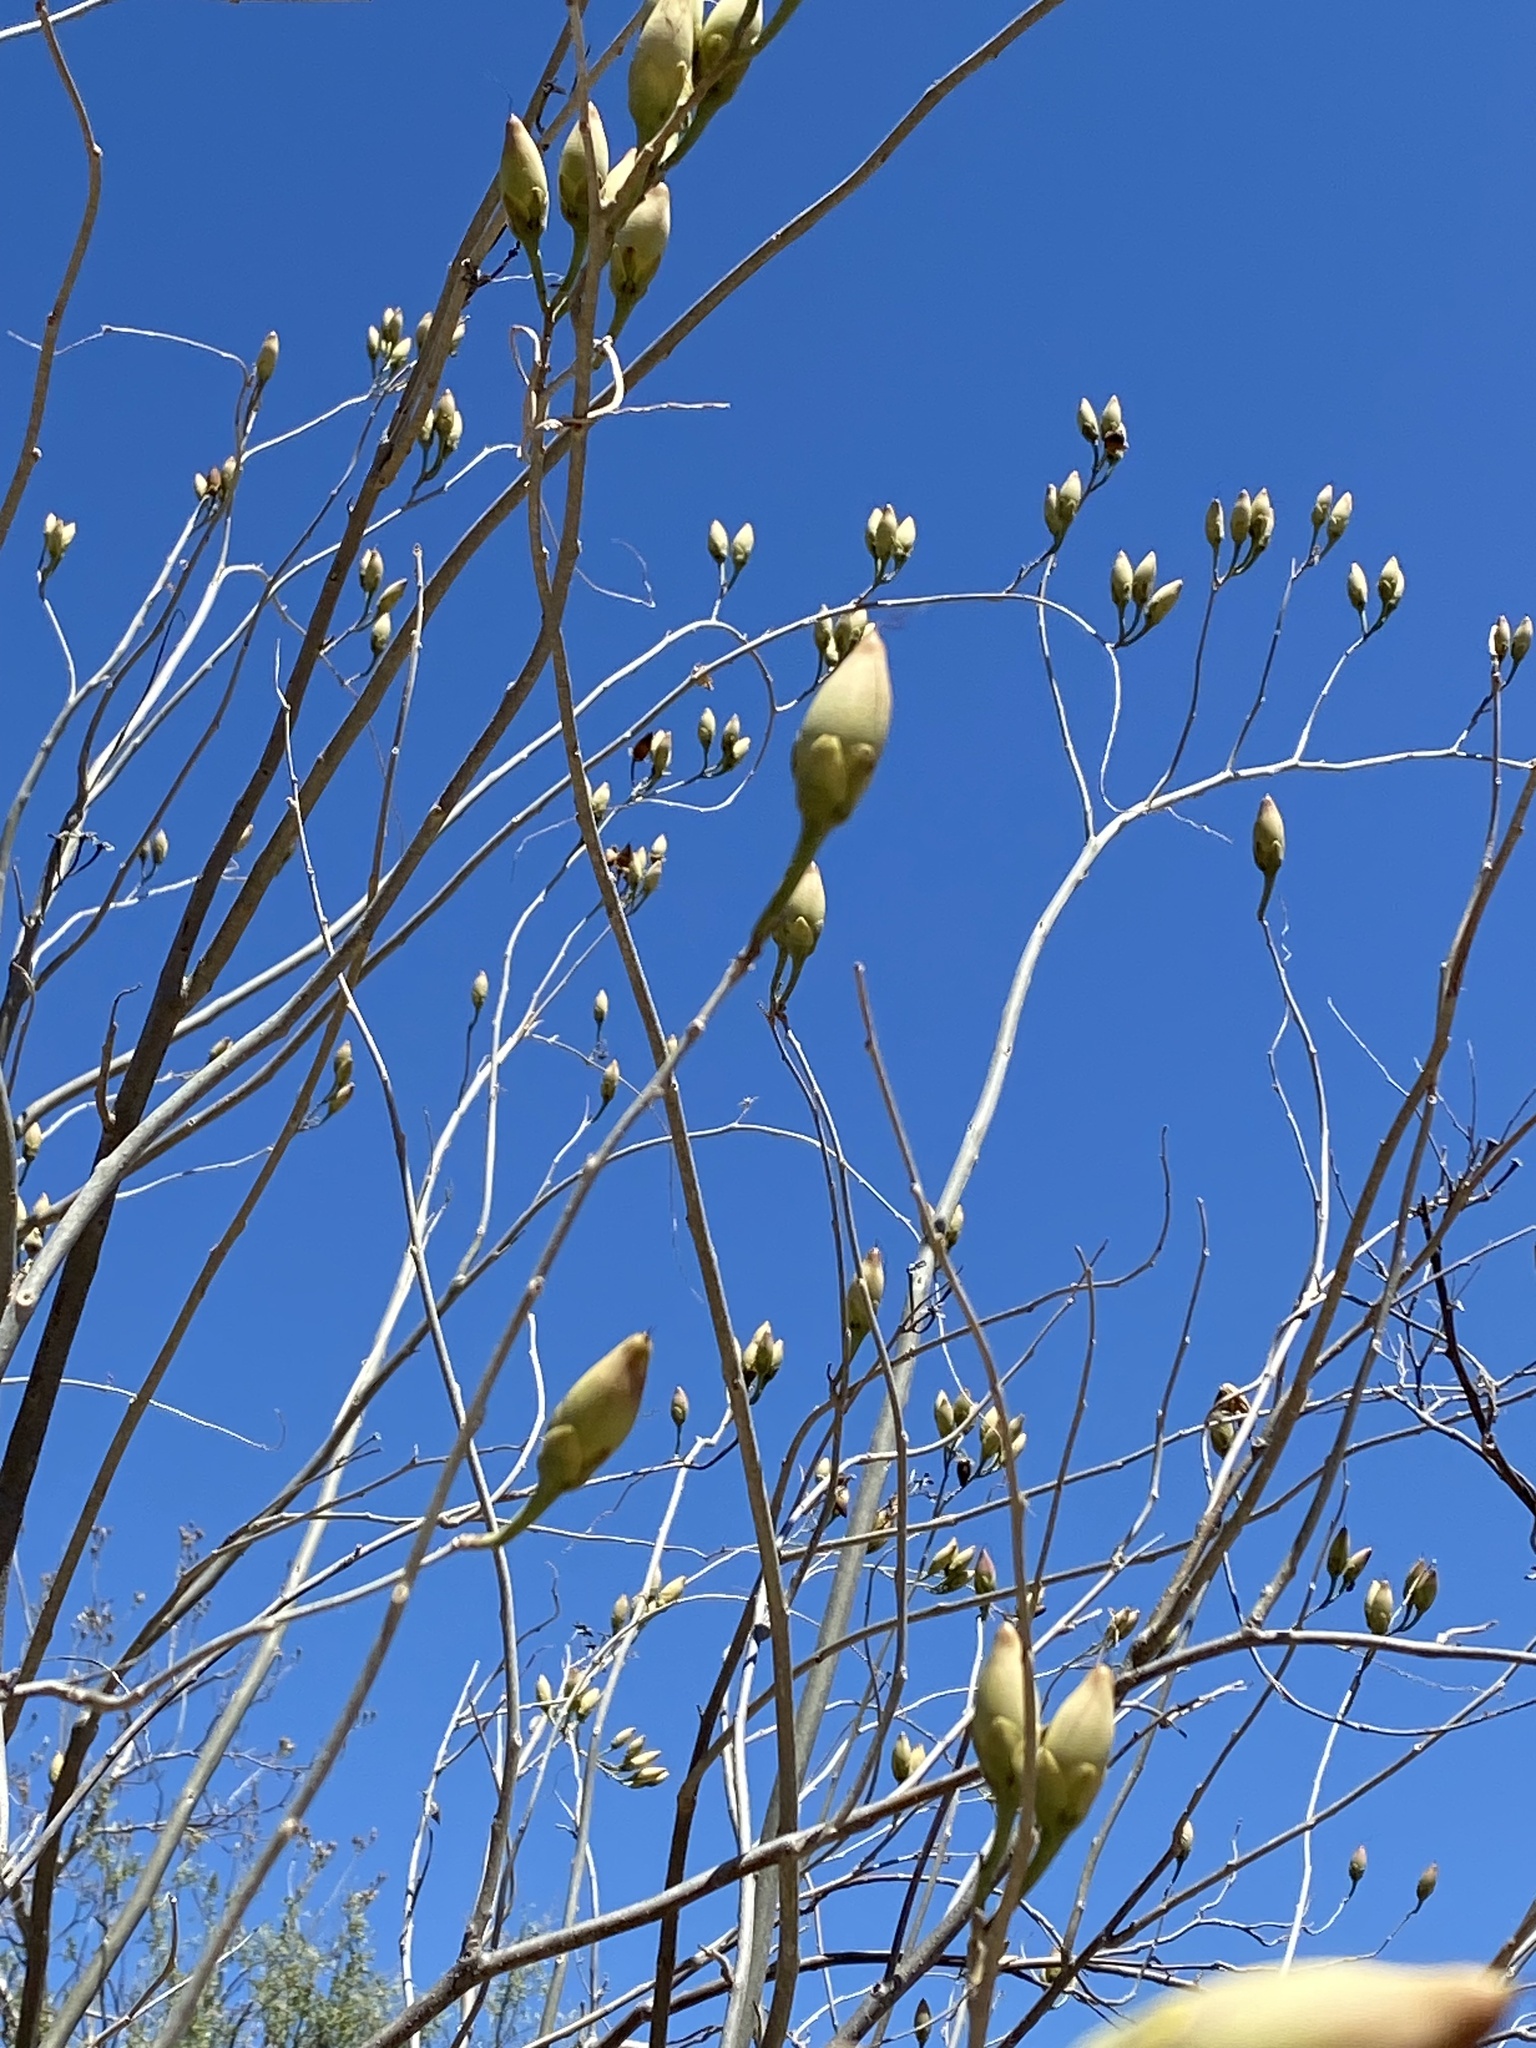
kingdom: Plantae
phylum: Tracheophyta
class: Magnoliopsida
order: Solanales
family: Convolvulaceae
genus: Ipomoea
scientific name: Ipomoea arborescens
